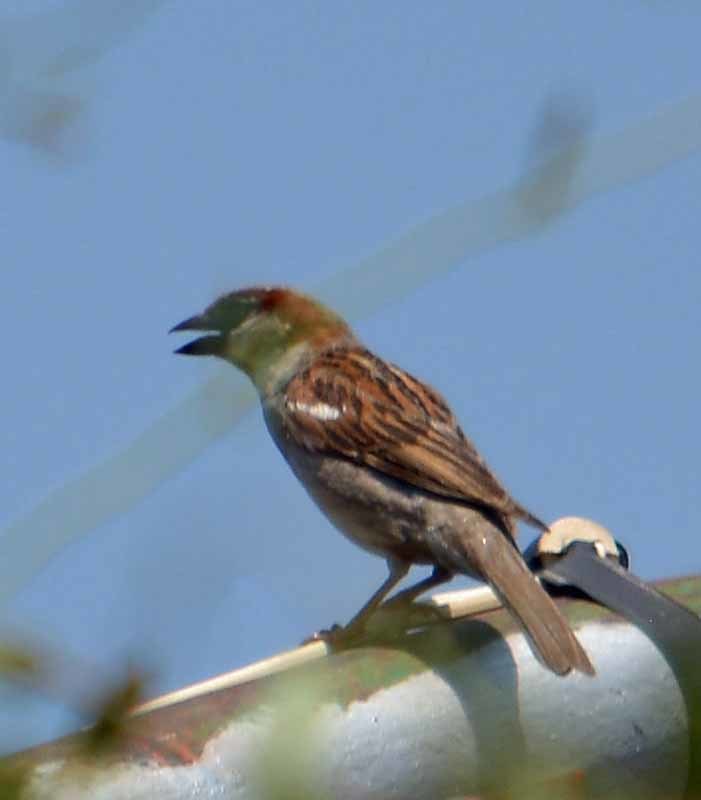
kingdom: Animalia
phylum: Chordata
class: Aves
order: Passeriformes
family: Passeridae
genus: Passer
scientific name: Passer domesticus
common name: House sparrow
